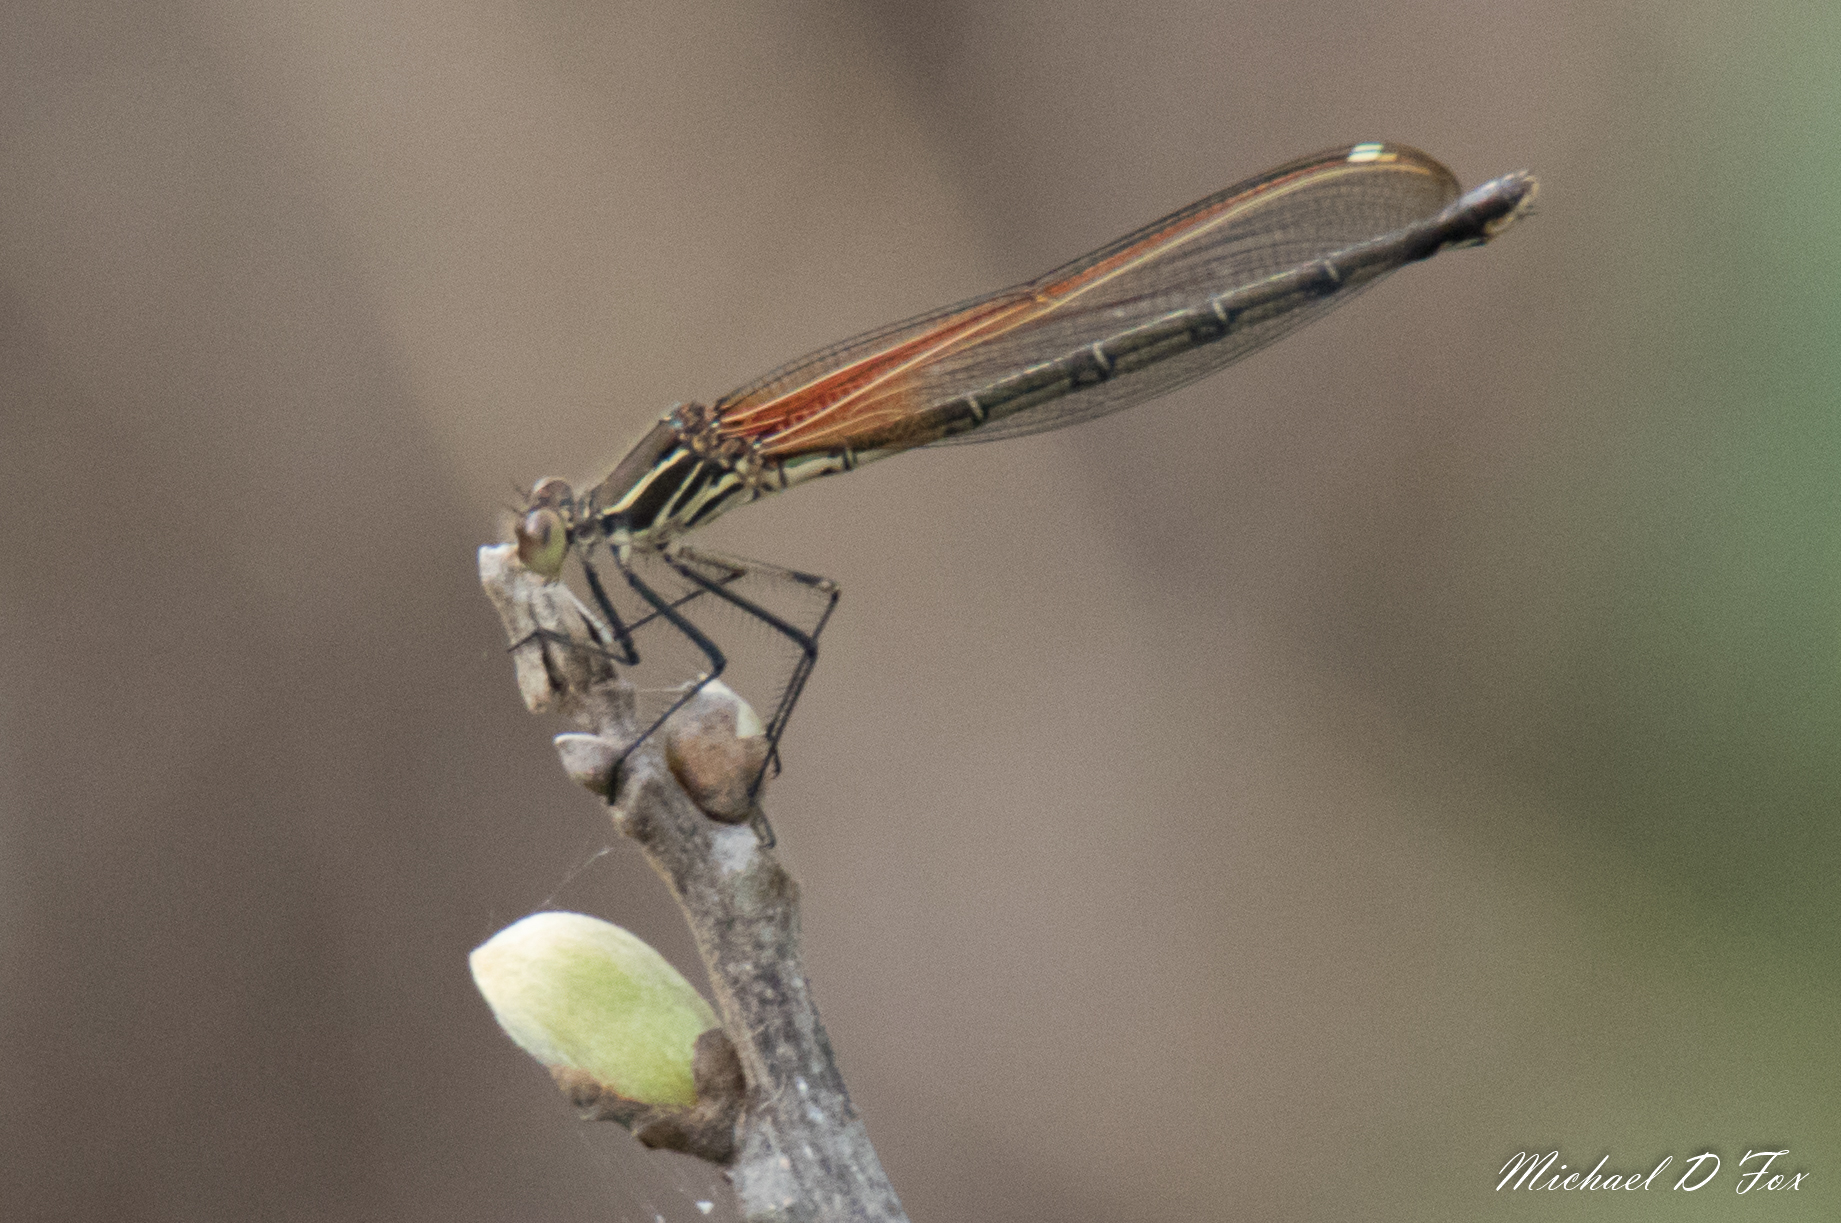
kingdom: Animalia
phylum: Arthropoda
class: Insecta
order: Odonata
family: Calopterygidae
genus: Hetaerina
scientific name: Hetaerina americana
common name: American rubyspot
